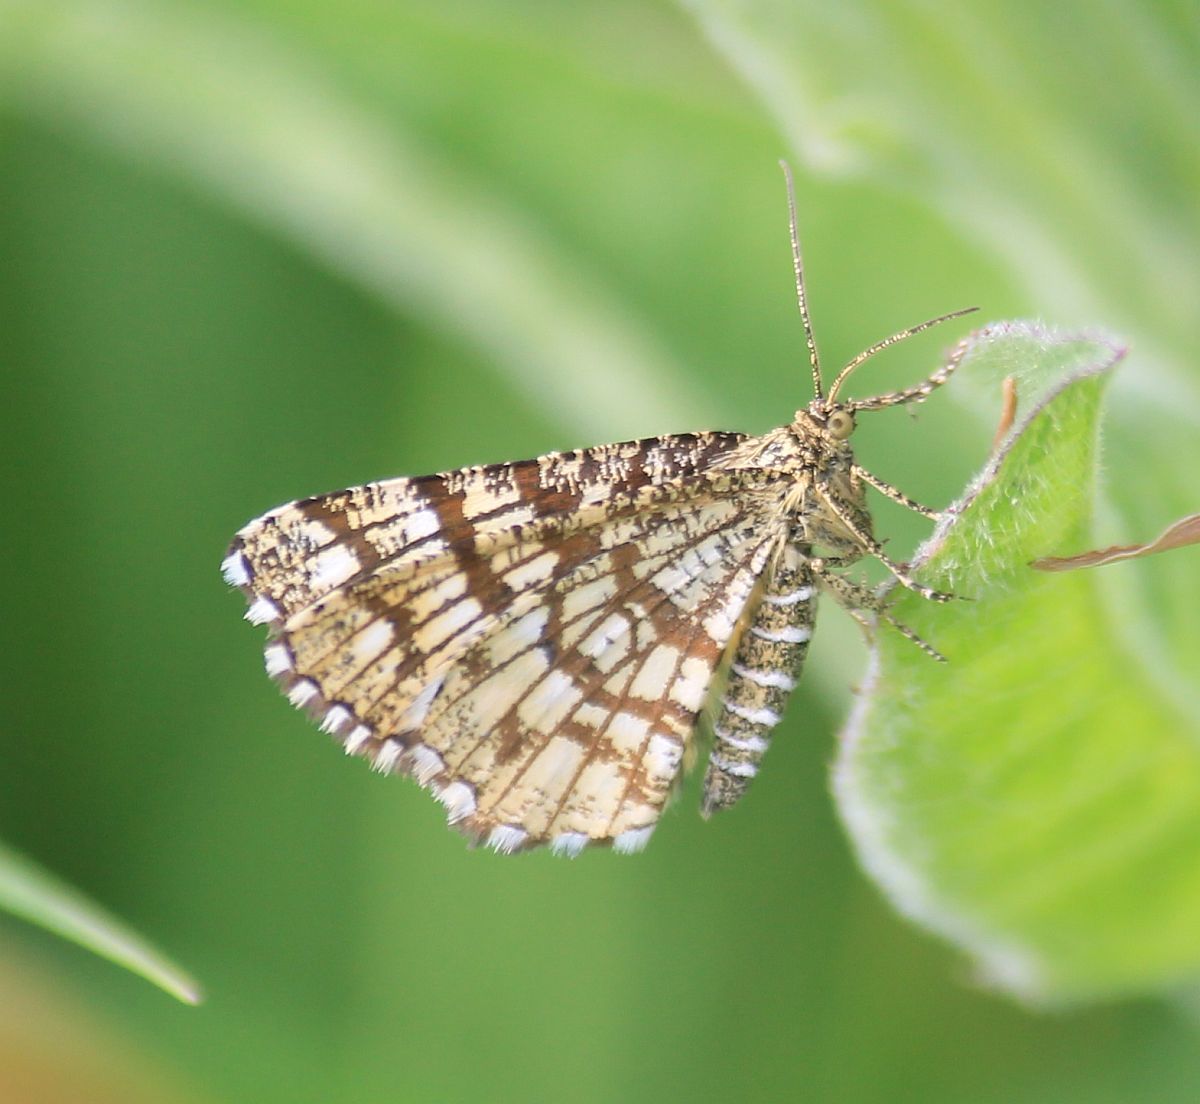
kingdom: Animalia
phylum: Arthropoda
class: Insecta
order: Lepidoptera
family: Geometridae
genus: Chiasmia
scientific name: Chiasmia clathrata
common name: Latticed heath
